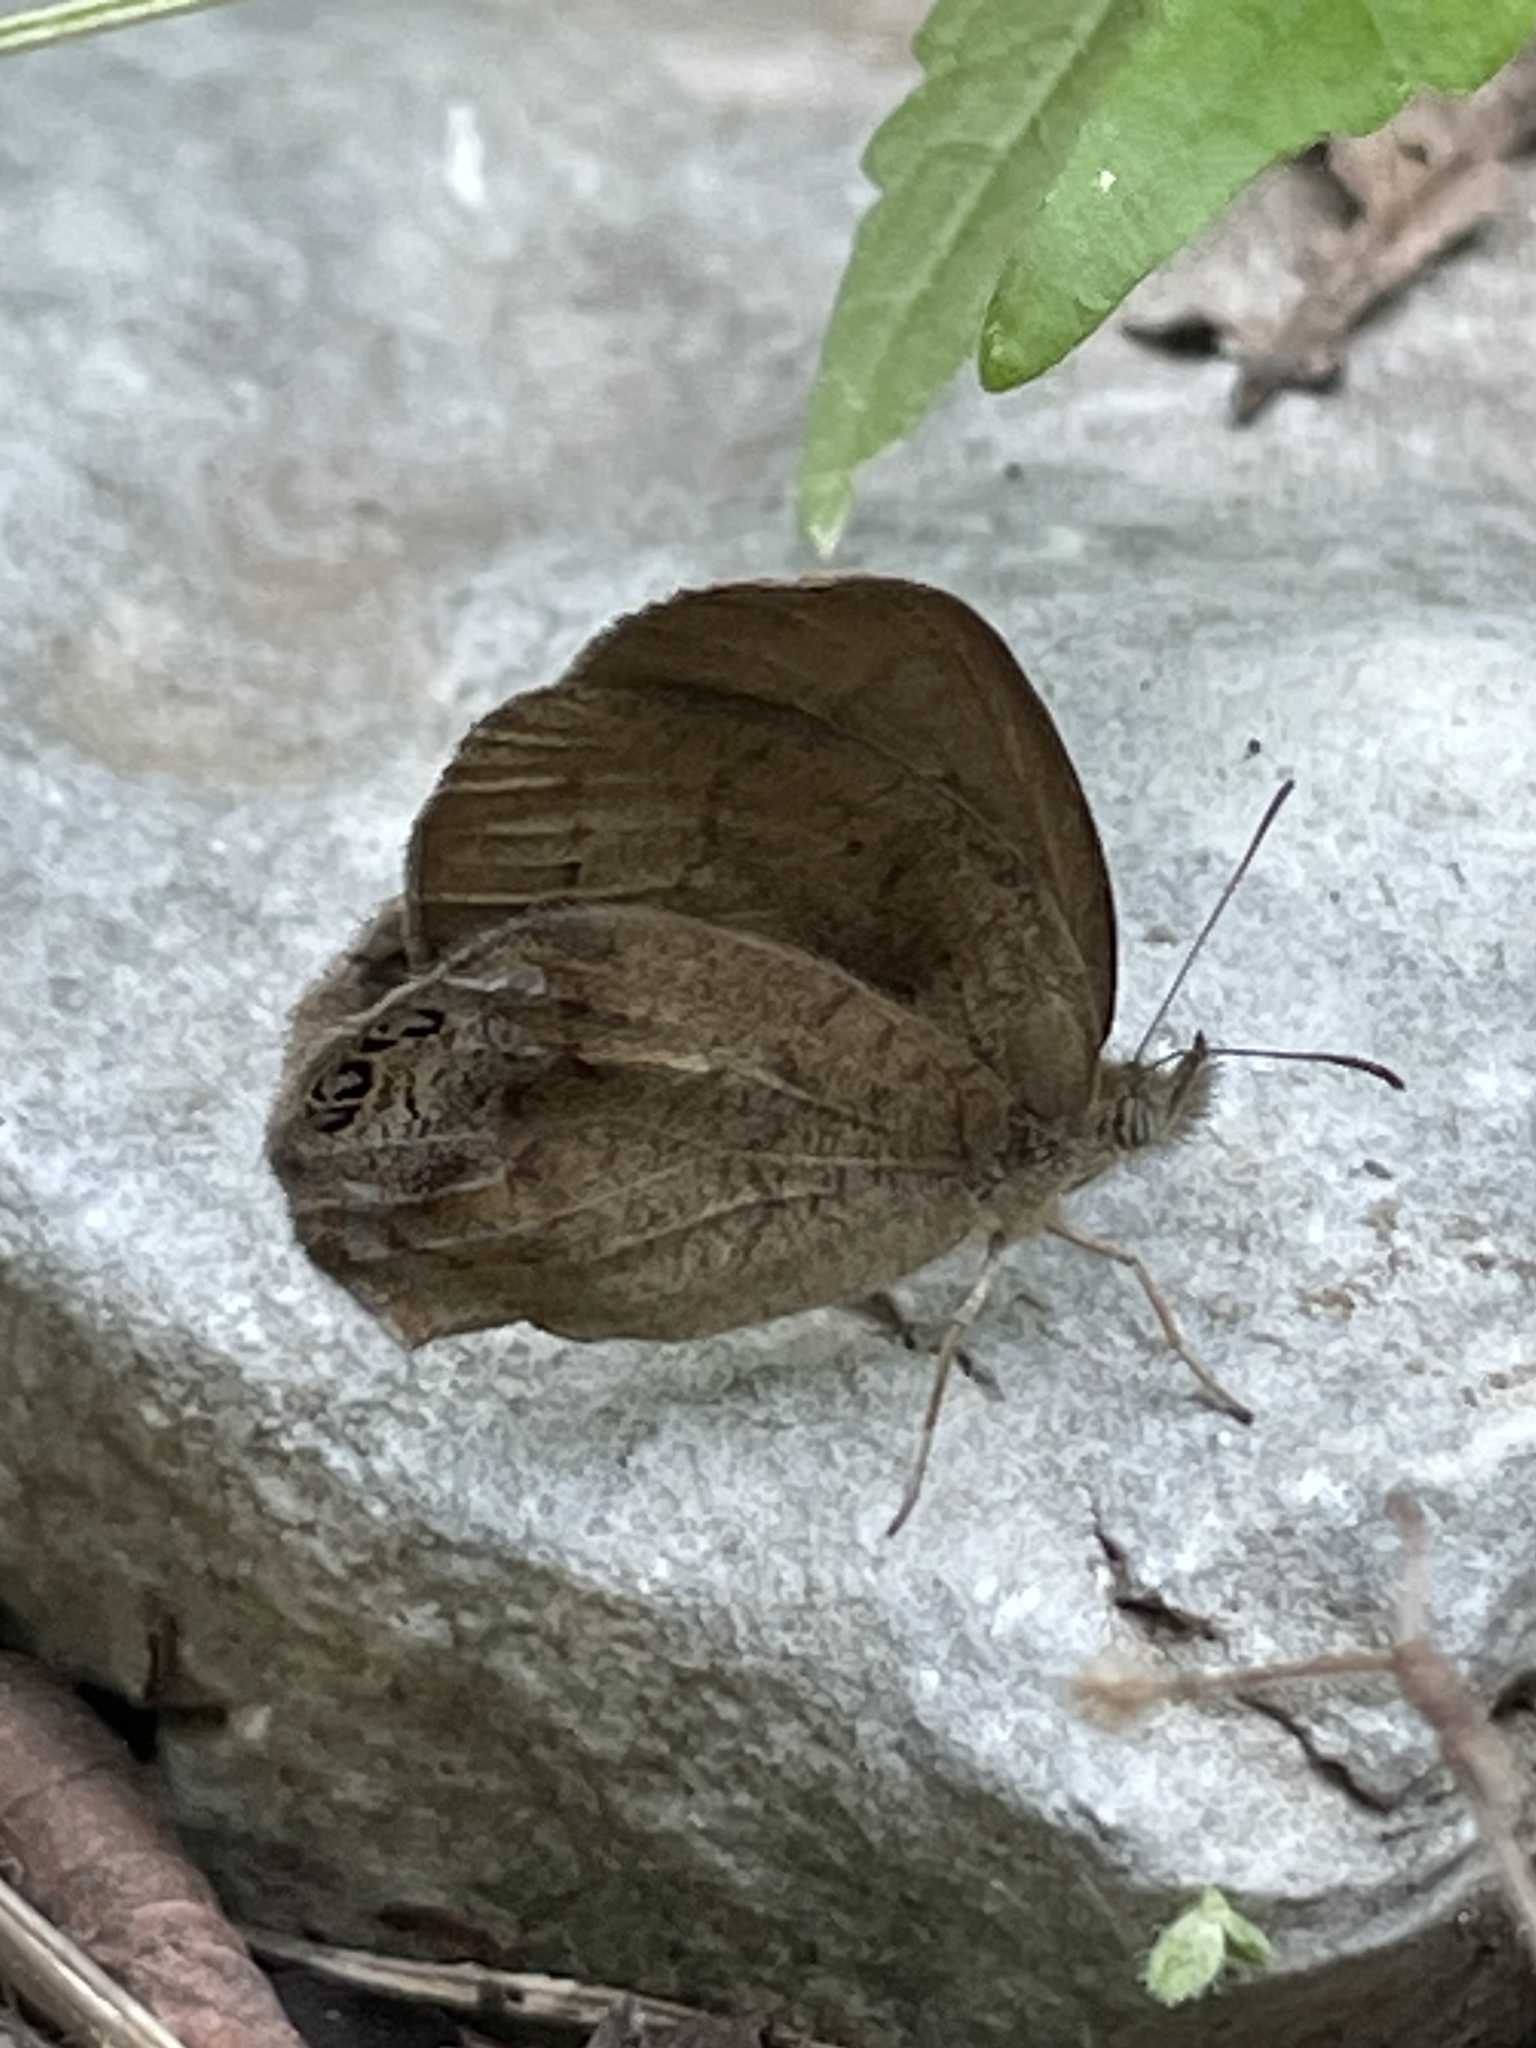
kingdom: Animalia
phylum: Arthropoda
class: Insecta
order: Lepidoptera
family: Nymphalidae
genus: Euptychia
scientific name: Euptychia cornelius
